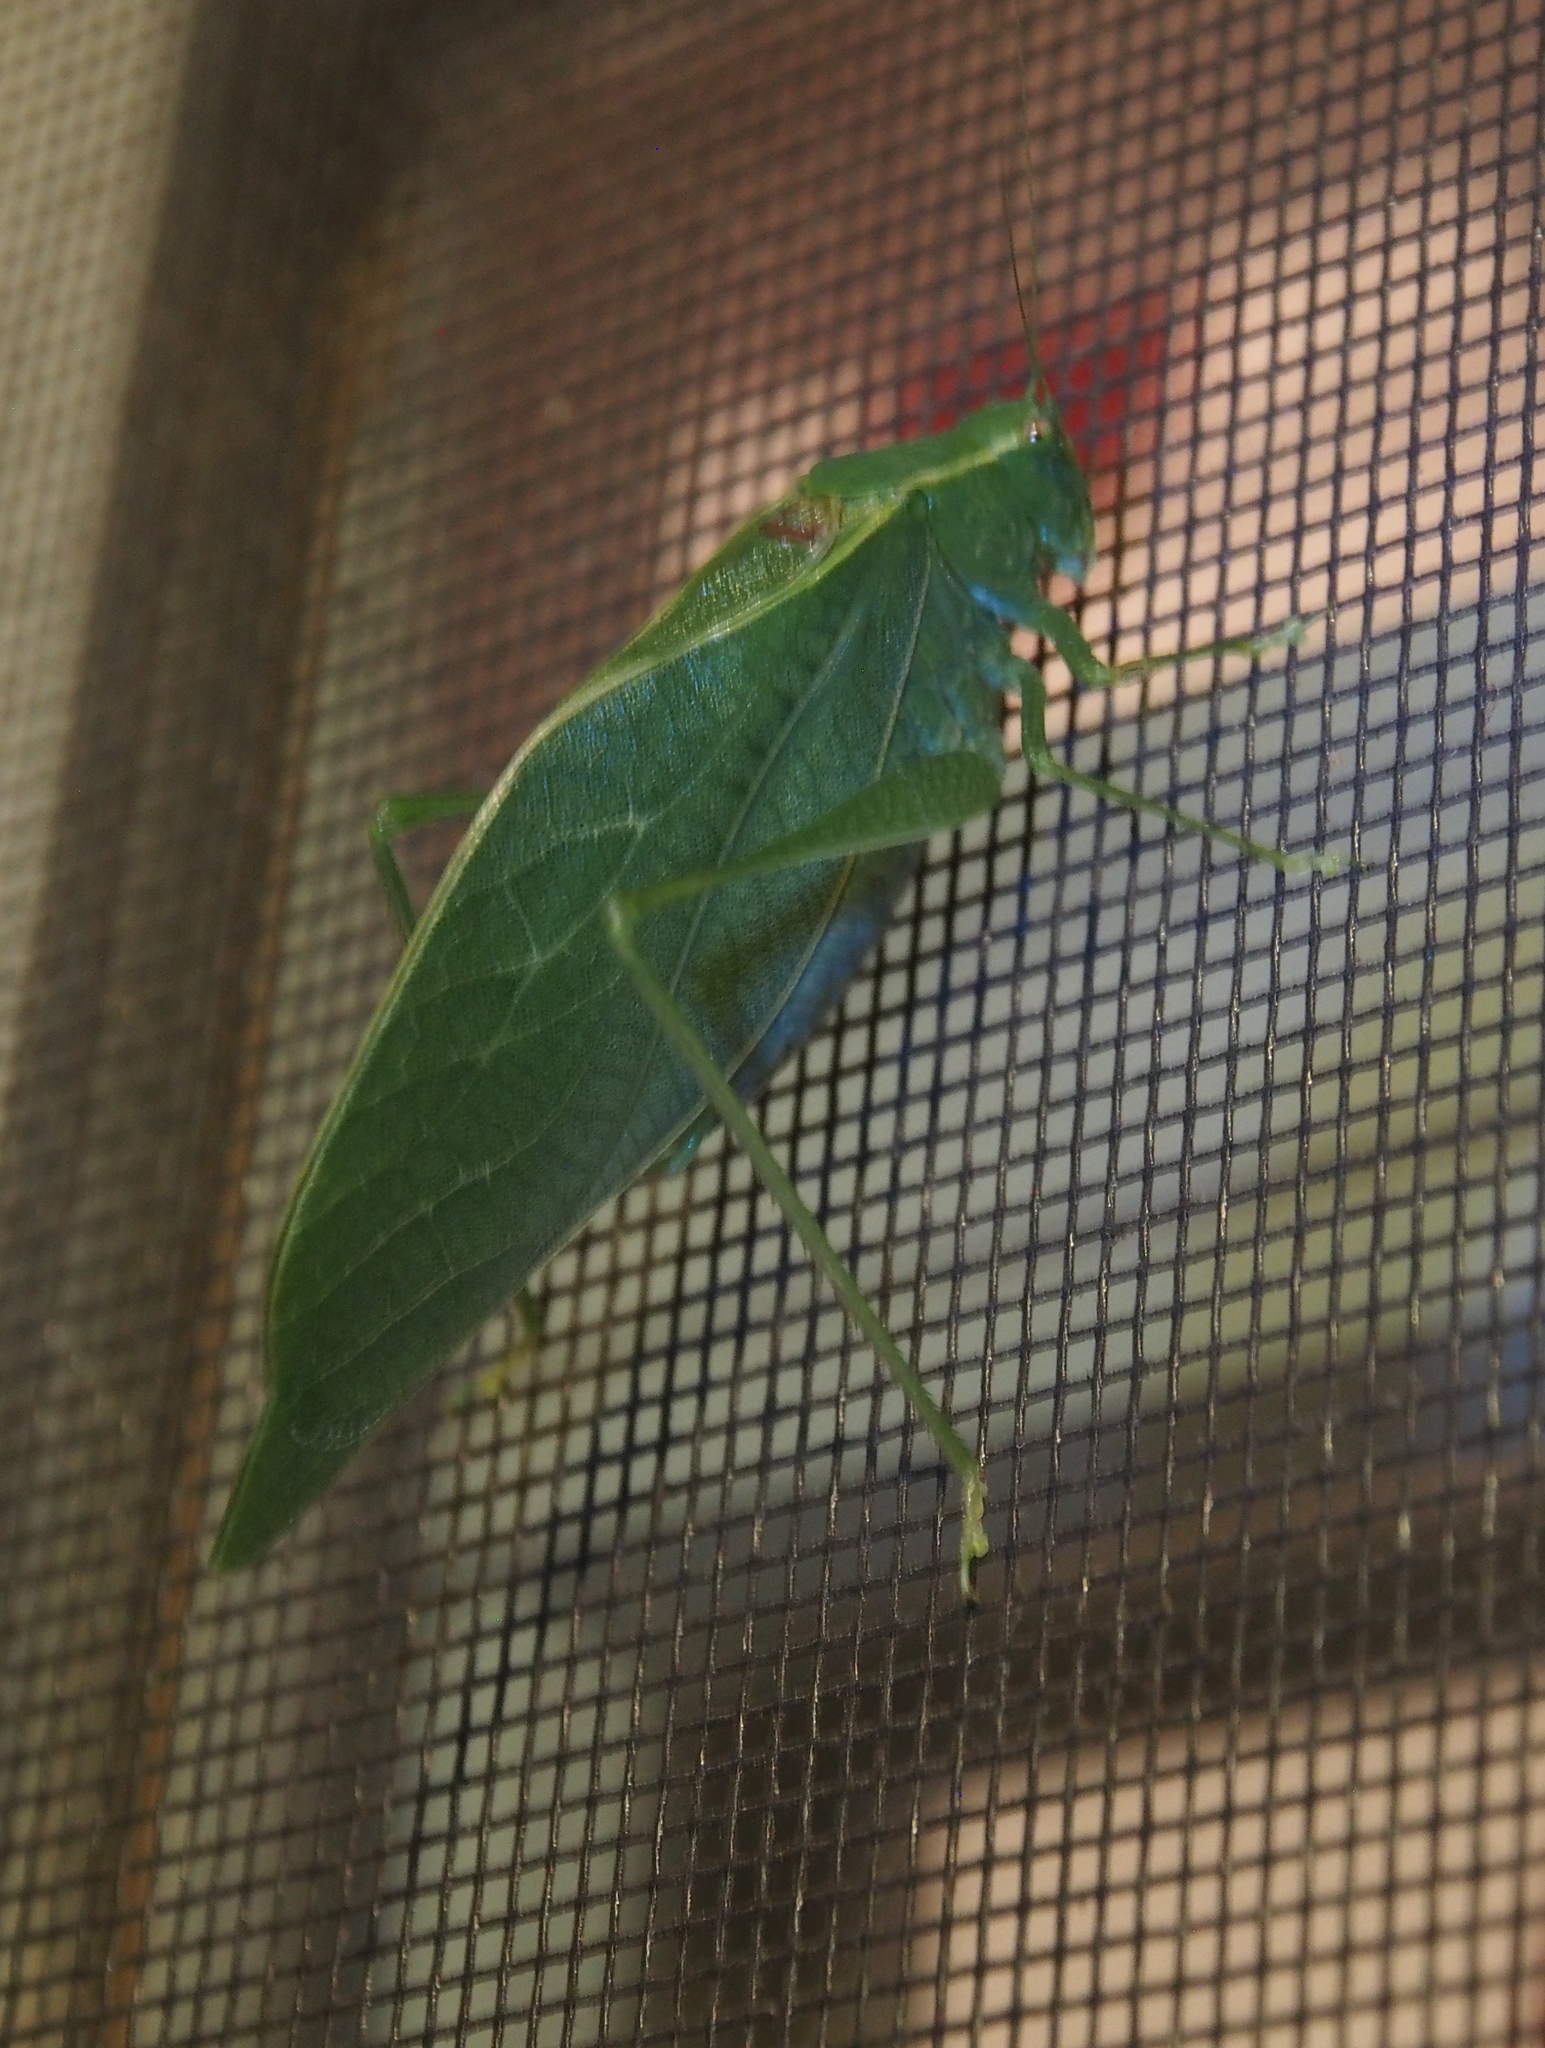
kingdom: Animalia
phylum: Arthropoda
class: Insecta
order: Orthoptera
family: Tettigoniidae
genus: Microcentrum
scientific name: Microcentrum retinerve
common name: Angular-winged katydid
